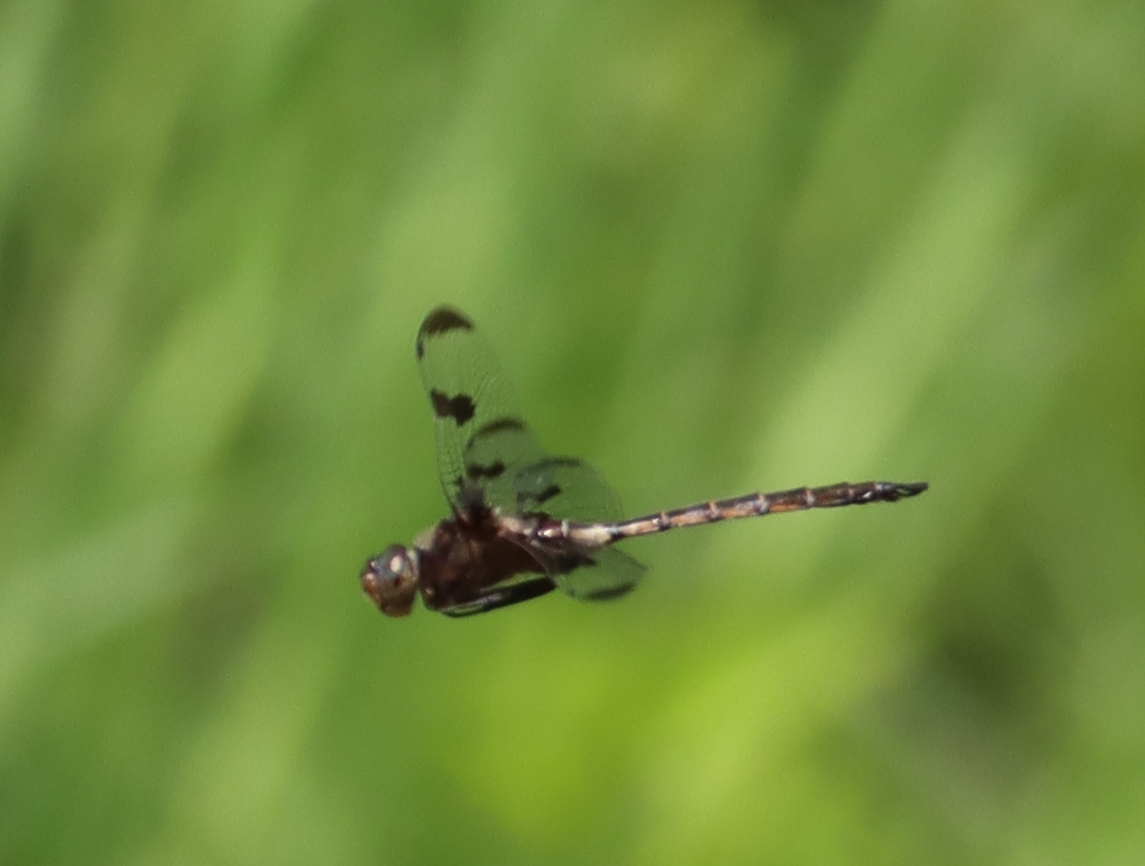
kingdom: Animalia
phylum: Arthropoda
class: Insecta
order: Odonata
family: Corduliidae
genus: Epitheca
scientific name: Epitheca princeps
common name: Prince baskettail
